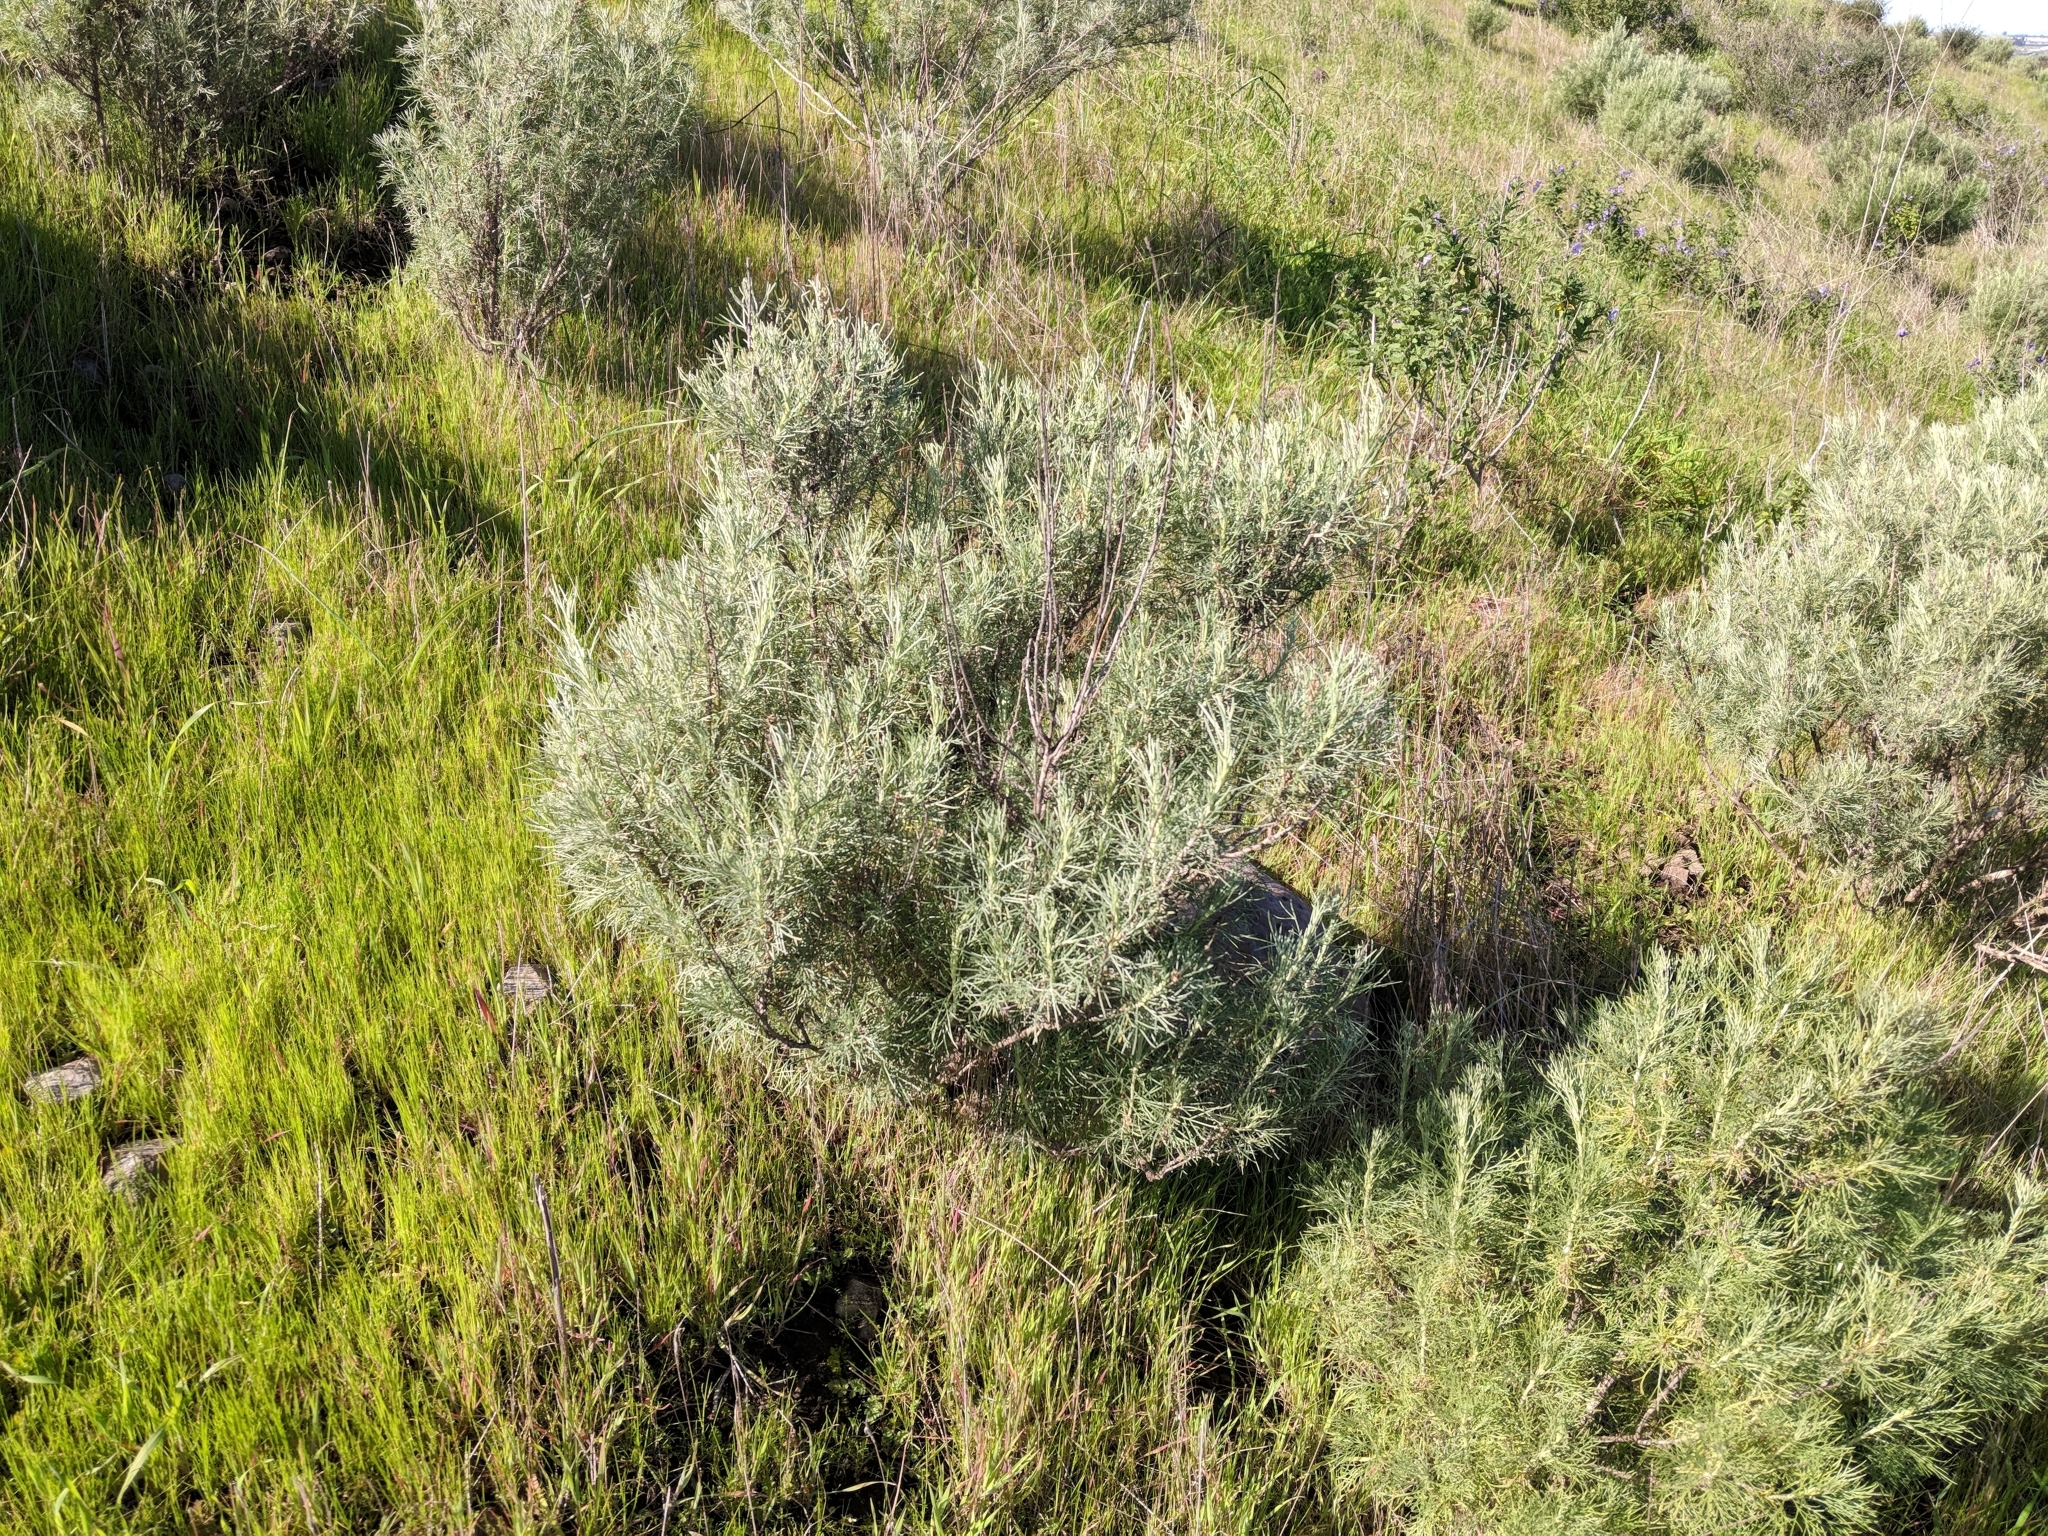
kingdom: Plantae
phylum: Tracheophyta
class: Magnoliopsida
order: Asterales
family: Asteraceae
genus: Artemisia
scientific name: Artemisia californica
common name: California sagebrush
